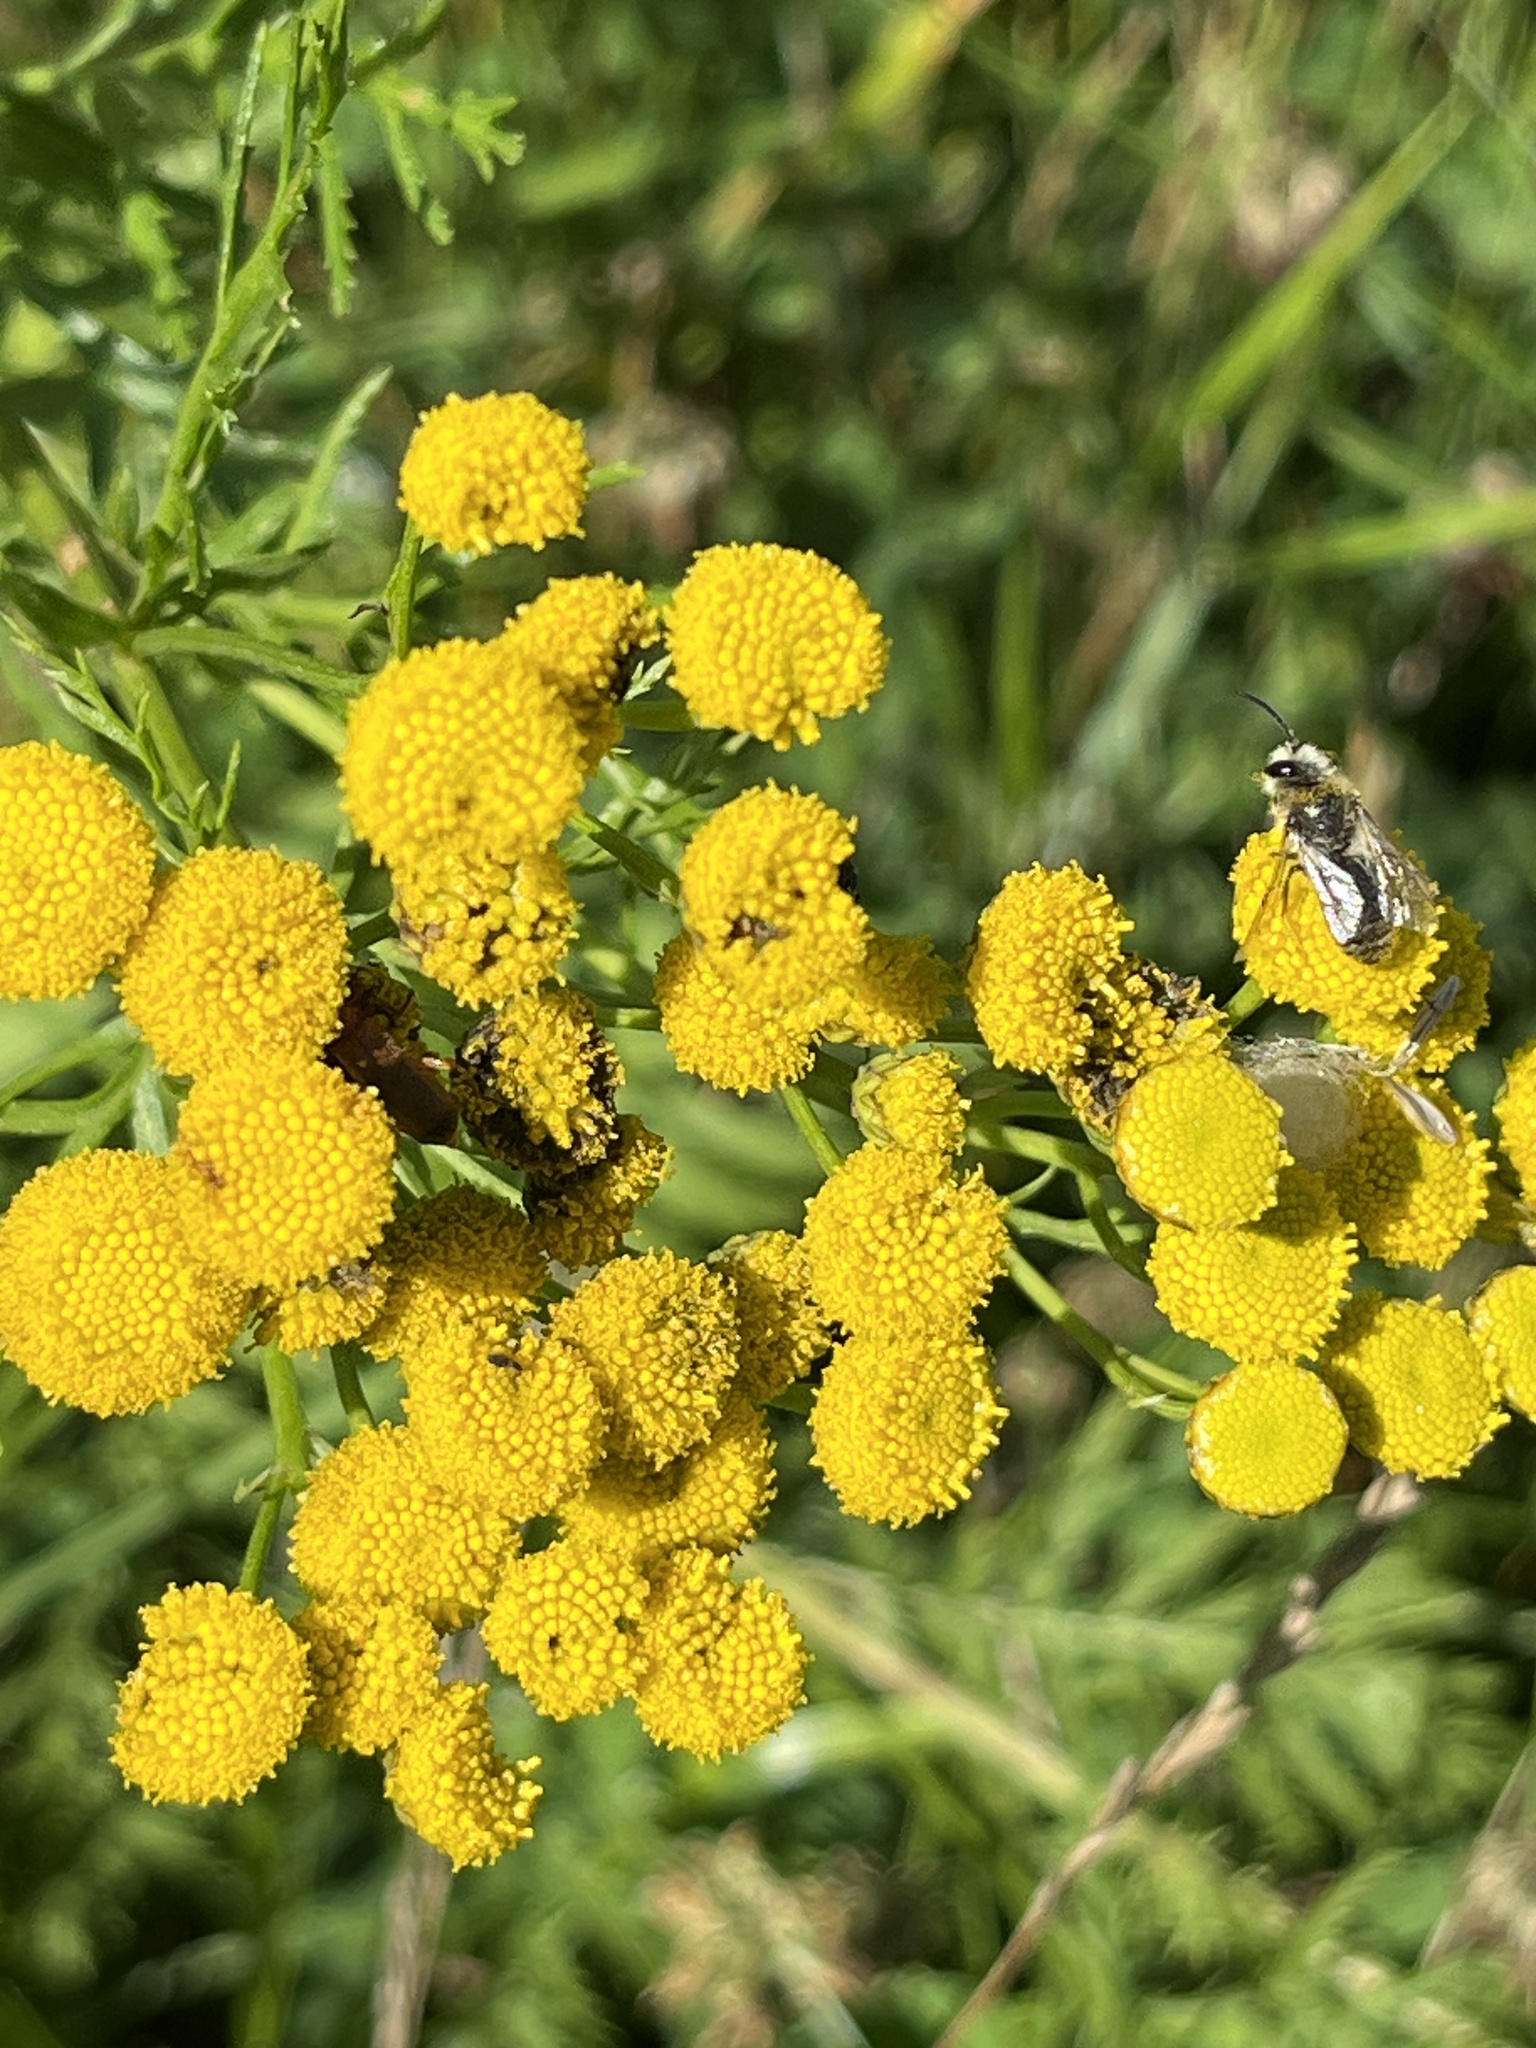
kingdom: Plantae
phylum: Tracheophyta
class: Magnoliopsida
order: Asterales
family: Asteraceae
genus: Tanacetum
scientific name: Tanacetum vulgare
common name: Common tansy
